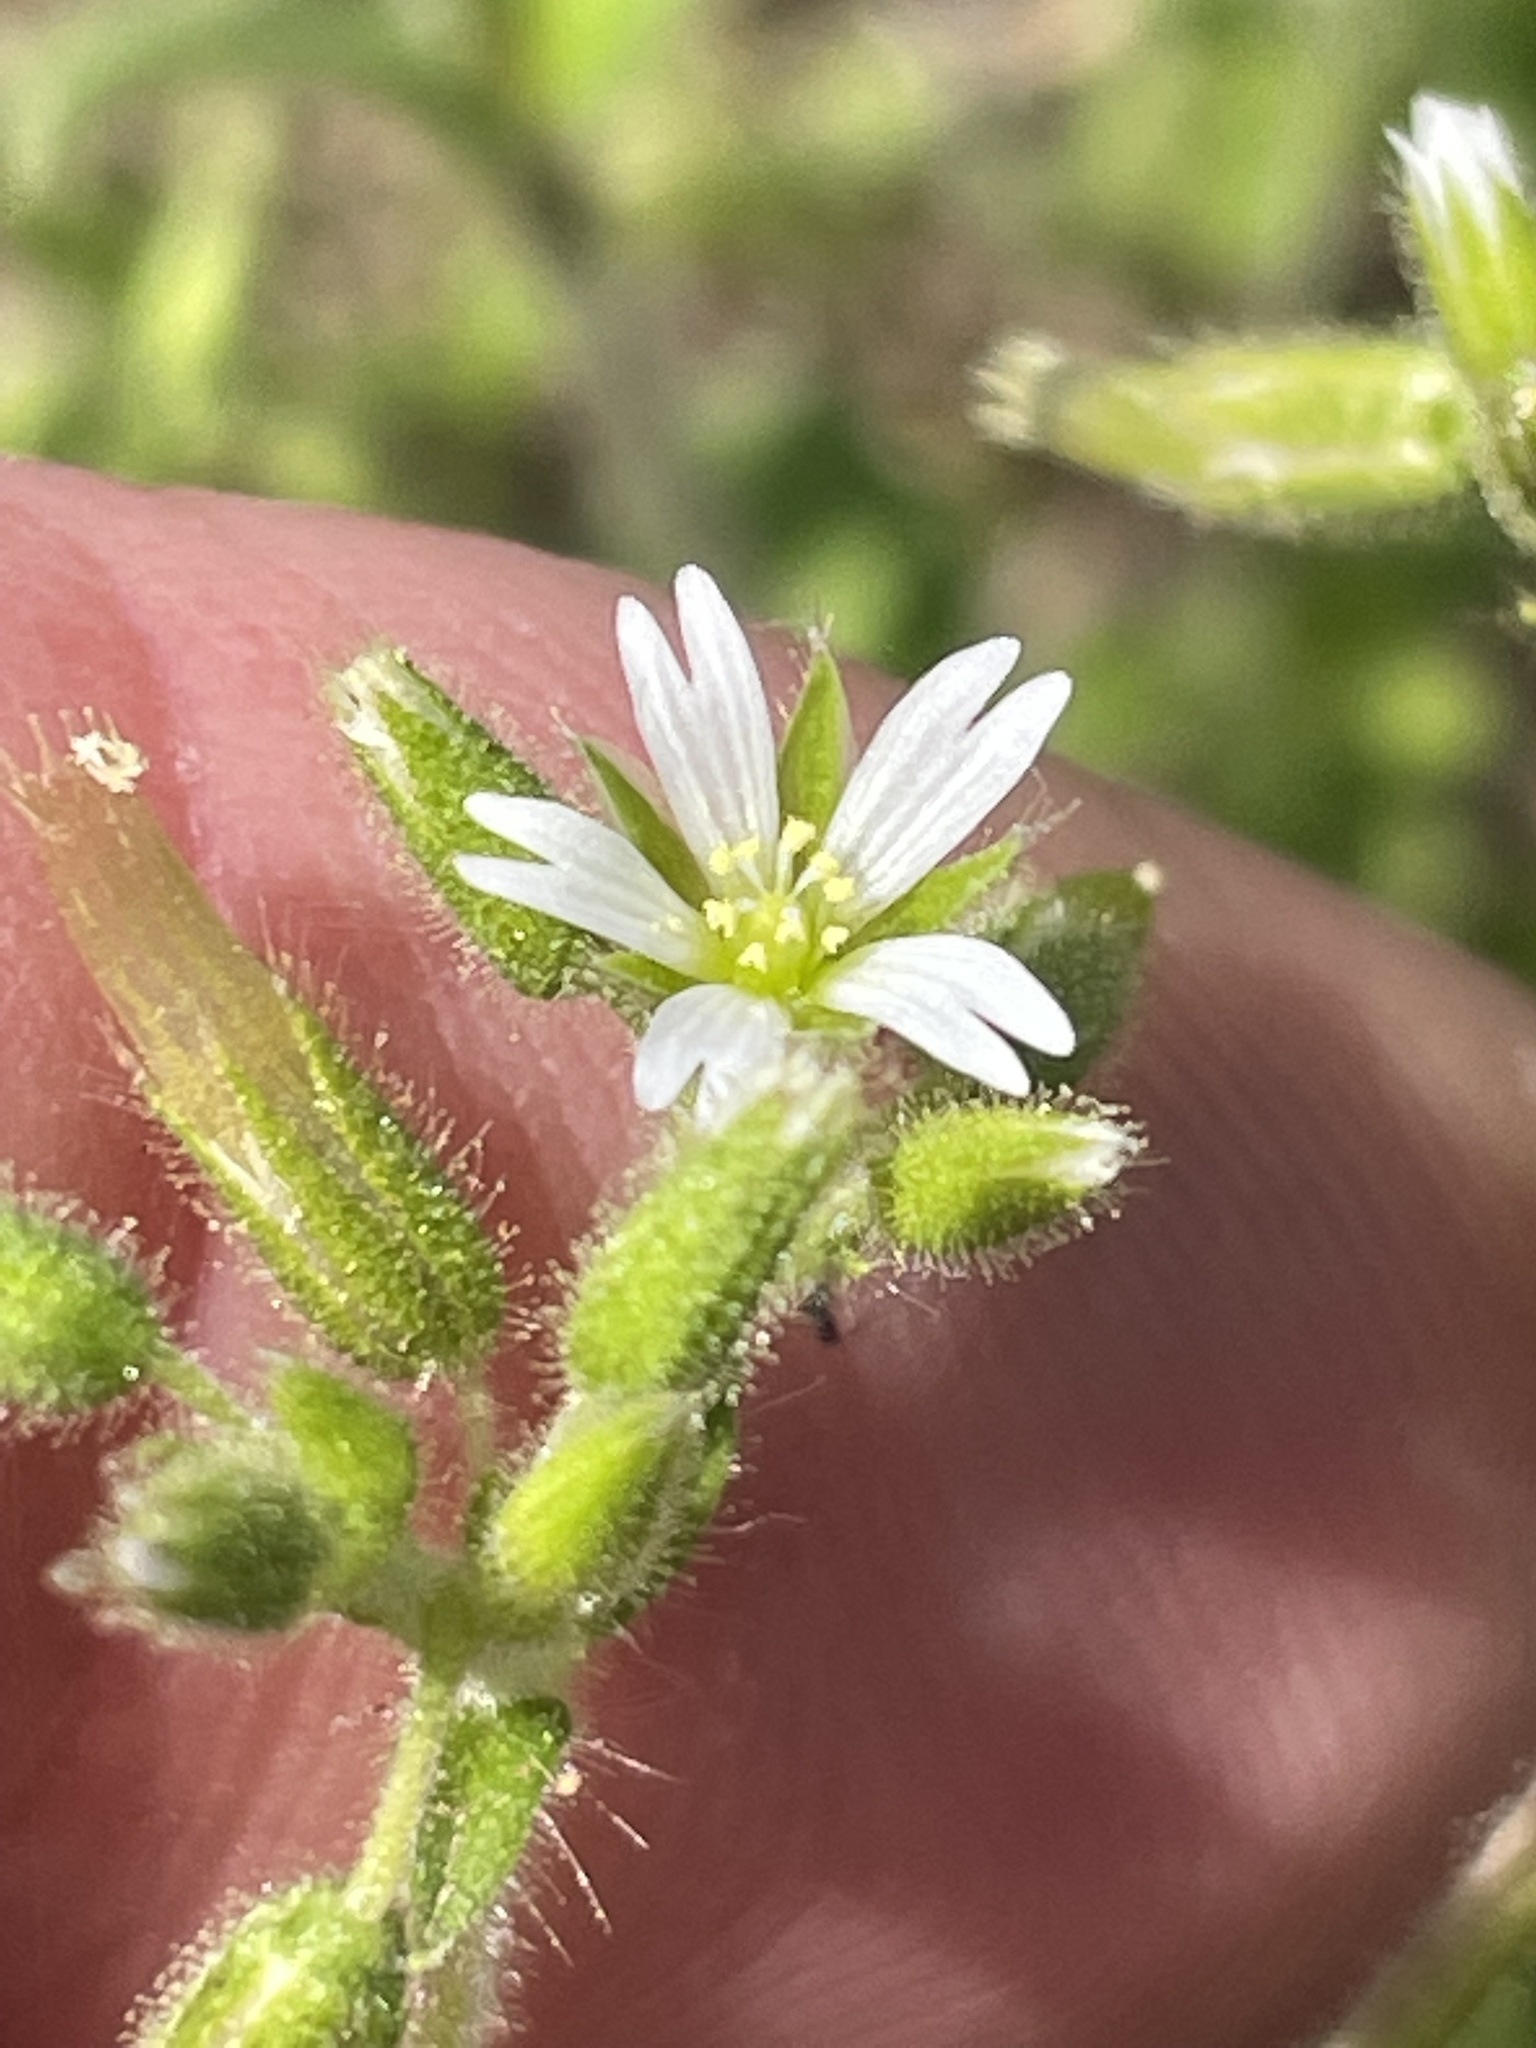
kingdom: Plantae
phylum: Tracheophyta
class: Magnoliopsida
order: Caryophyllales
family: Caryophyllaceae
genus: Cerastium
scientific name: Cerastium glomeratum
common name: Sticky chickweed
